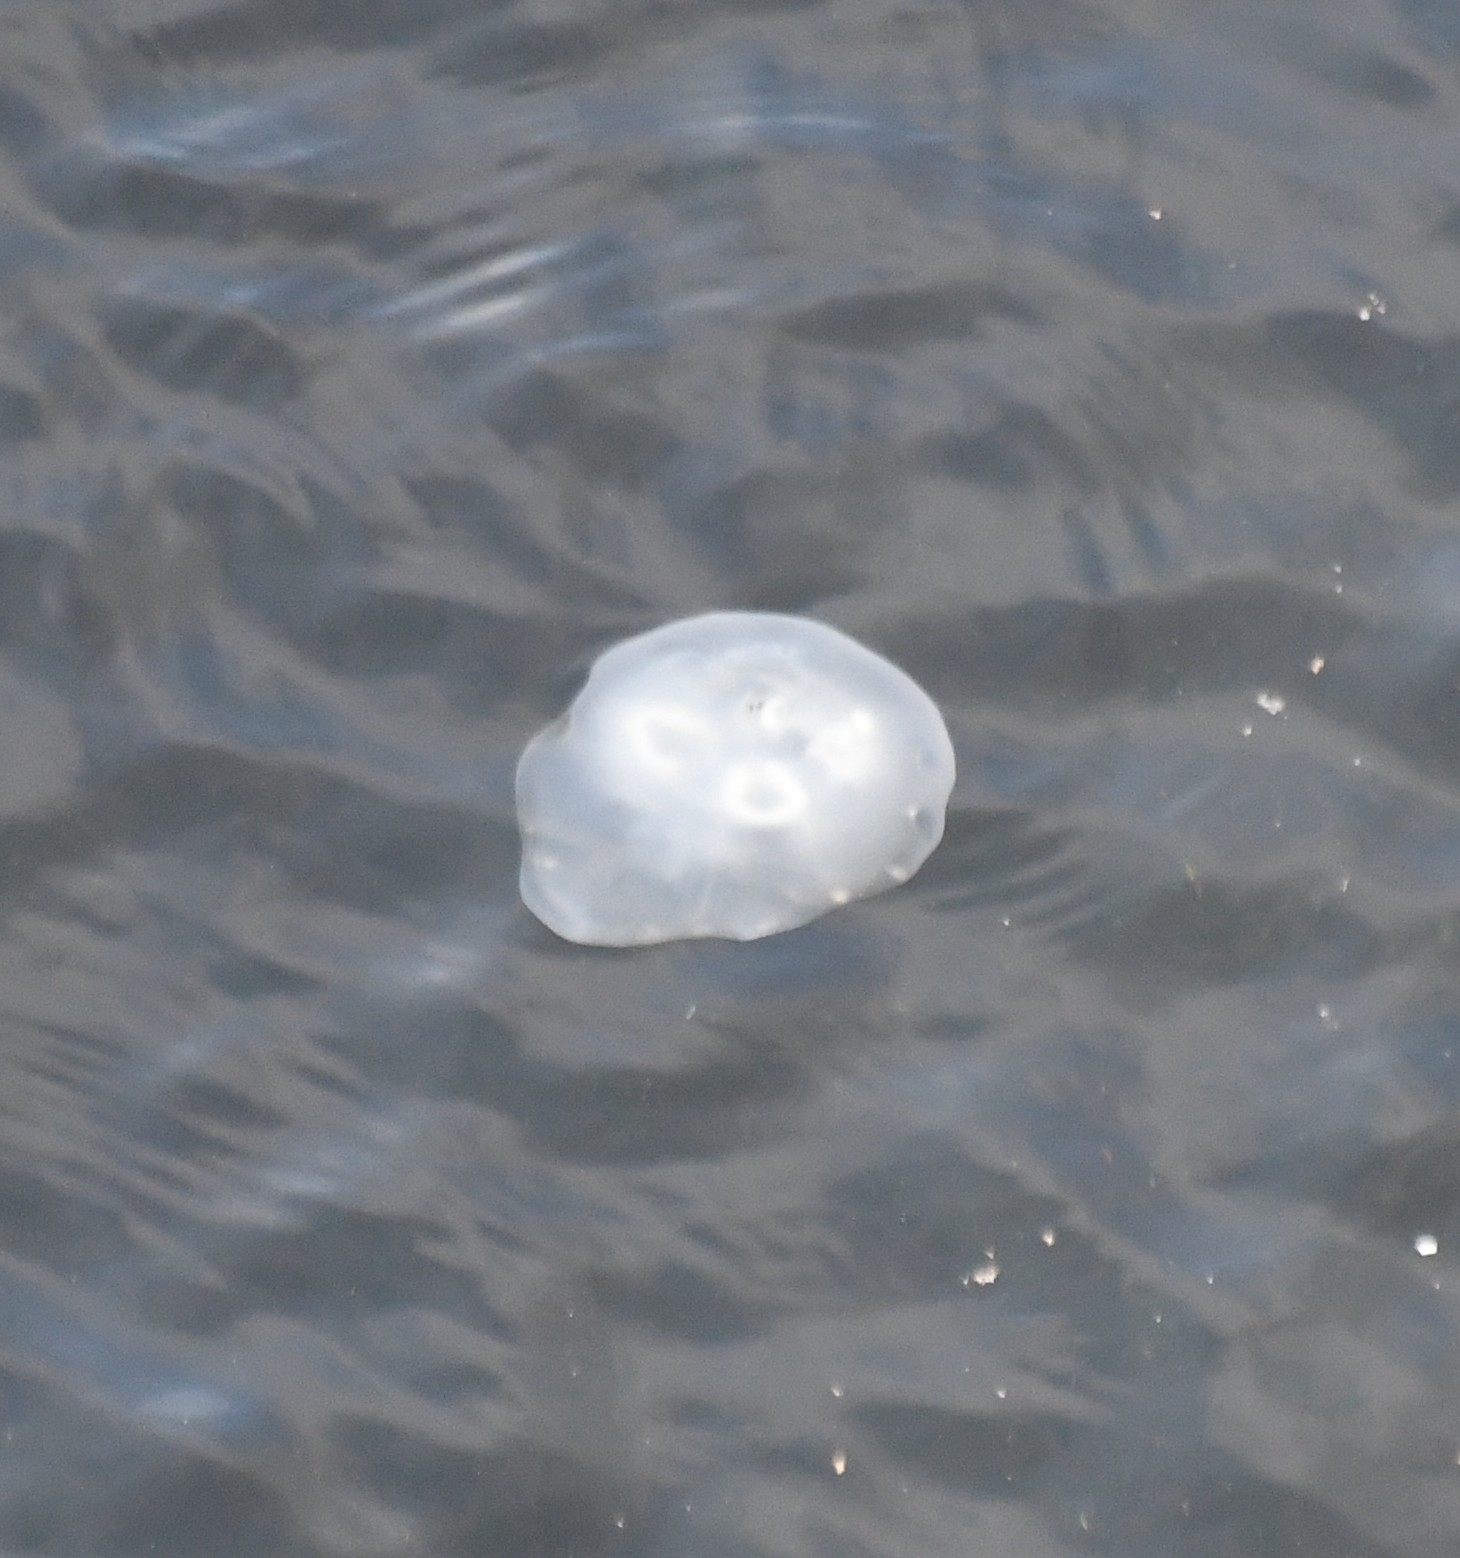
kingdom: Animalia
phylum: Cnidaria
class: Scyphozoa
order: Semaeostomeae
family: Ulmaridae
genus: Aurelia
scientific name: Aurelia labiata
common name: Pacific moon jelly
